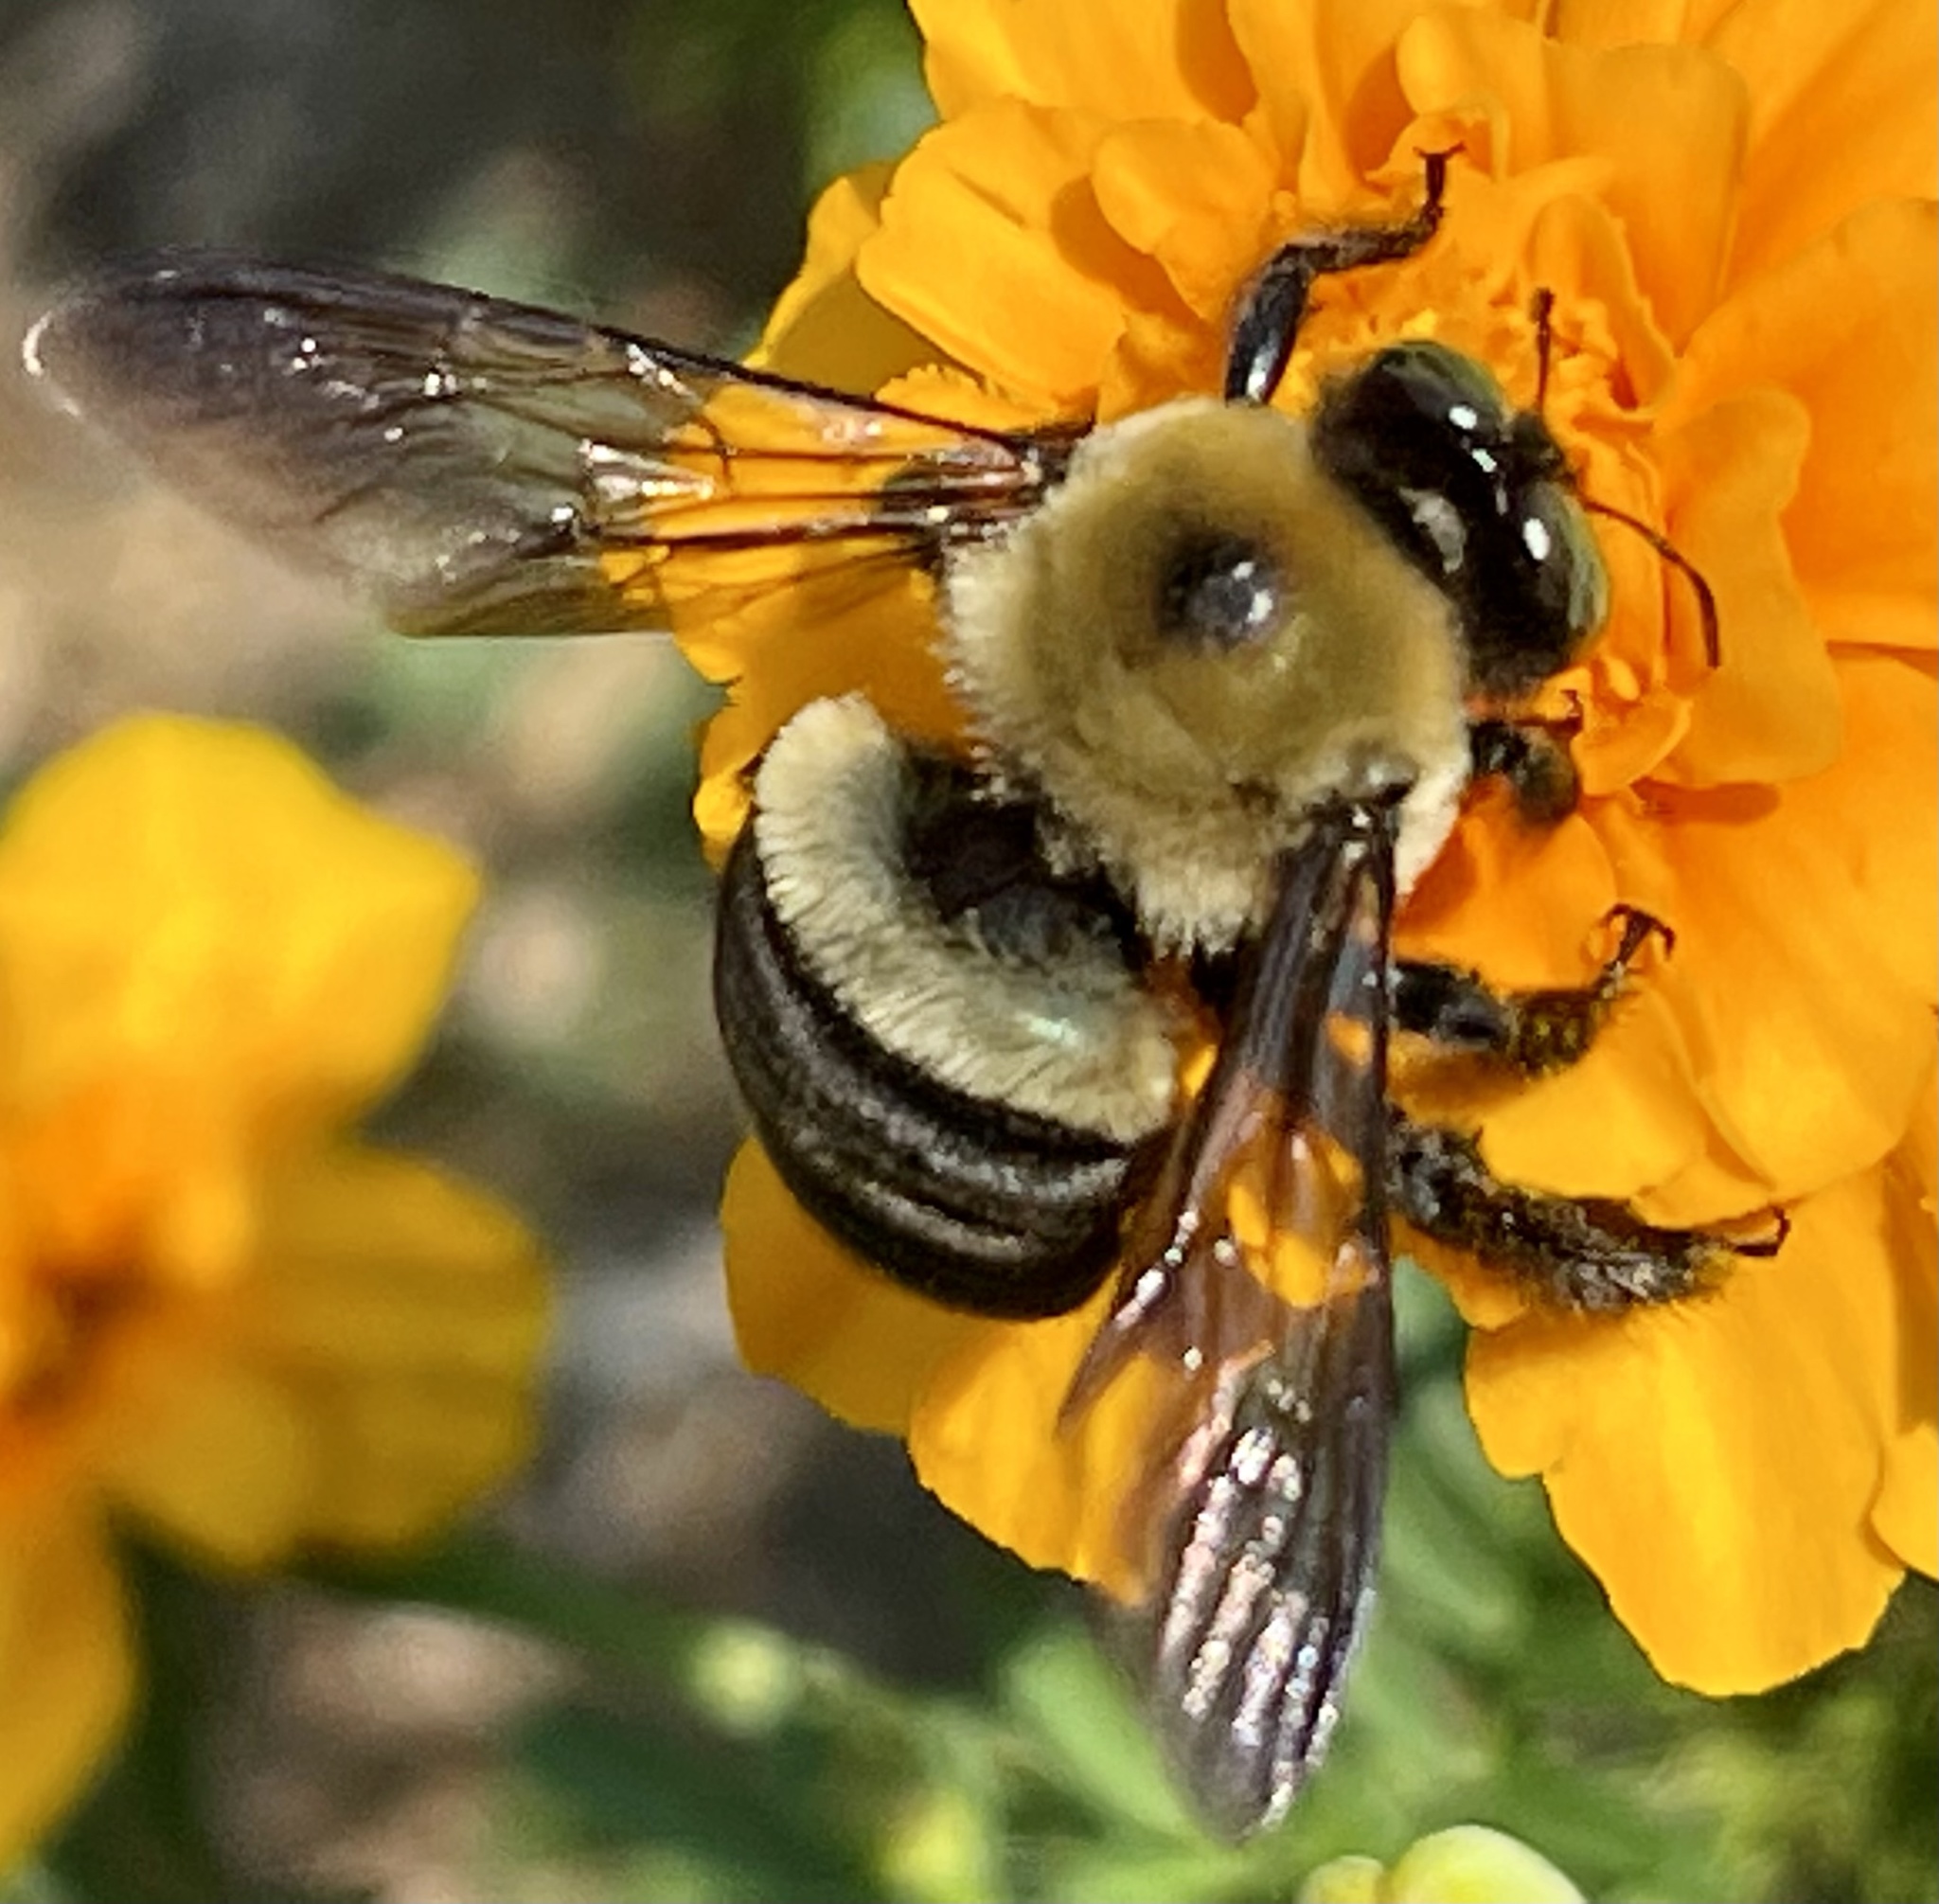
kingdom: Animalia
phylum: Arthropoda
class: Insecta
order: Hymenoptera
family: Apidae
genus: Xylocopa
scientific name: Xylocopa virginica
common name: Carpenter bee
